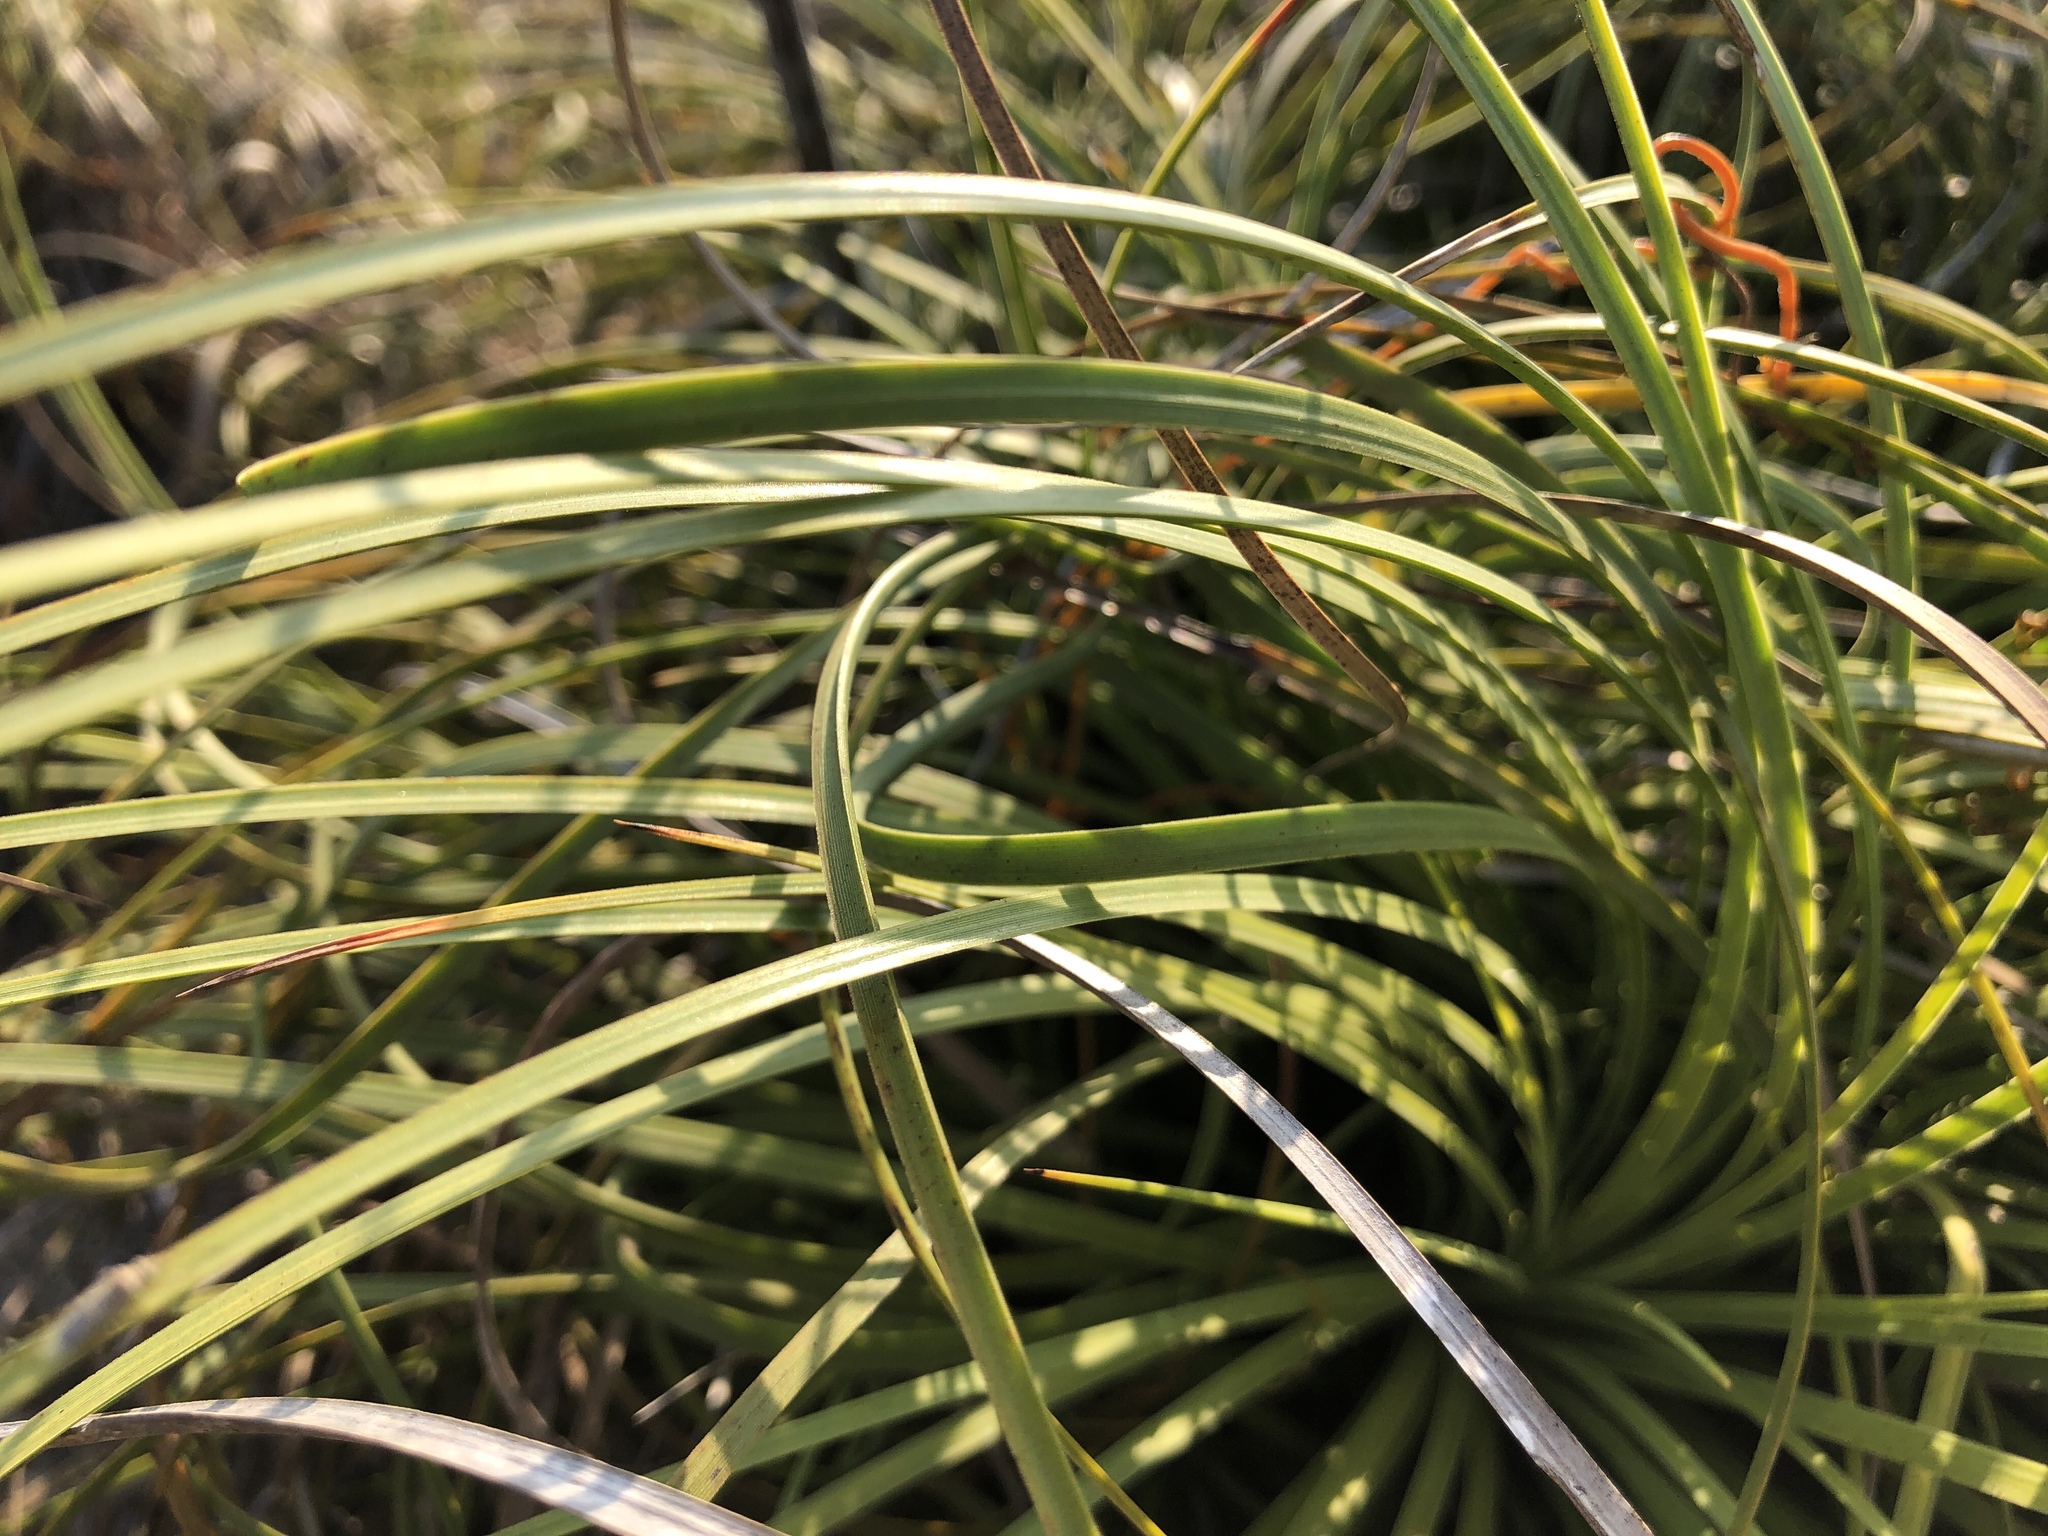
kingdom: Plantae
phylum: Tracheophyta
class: Liliopsida
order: Asparagales
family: Asphodelaceae
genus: Xanthorrhoea
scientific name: Xanthorrhoea pumilio
